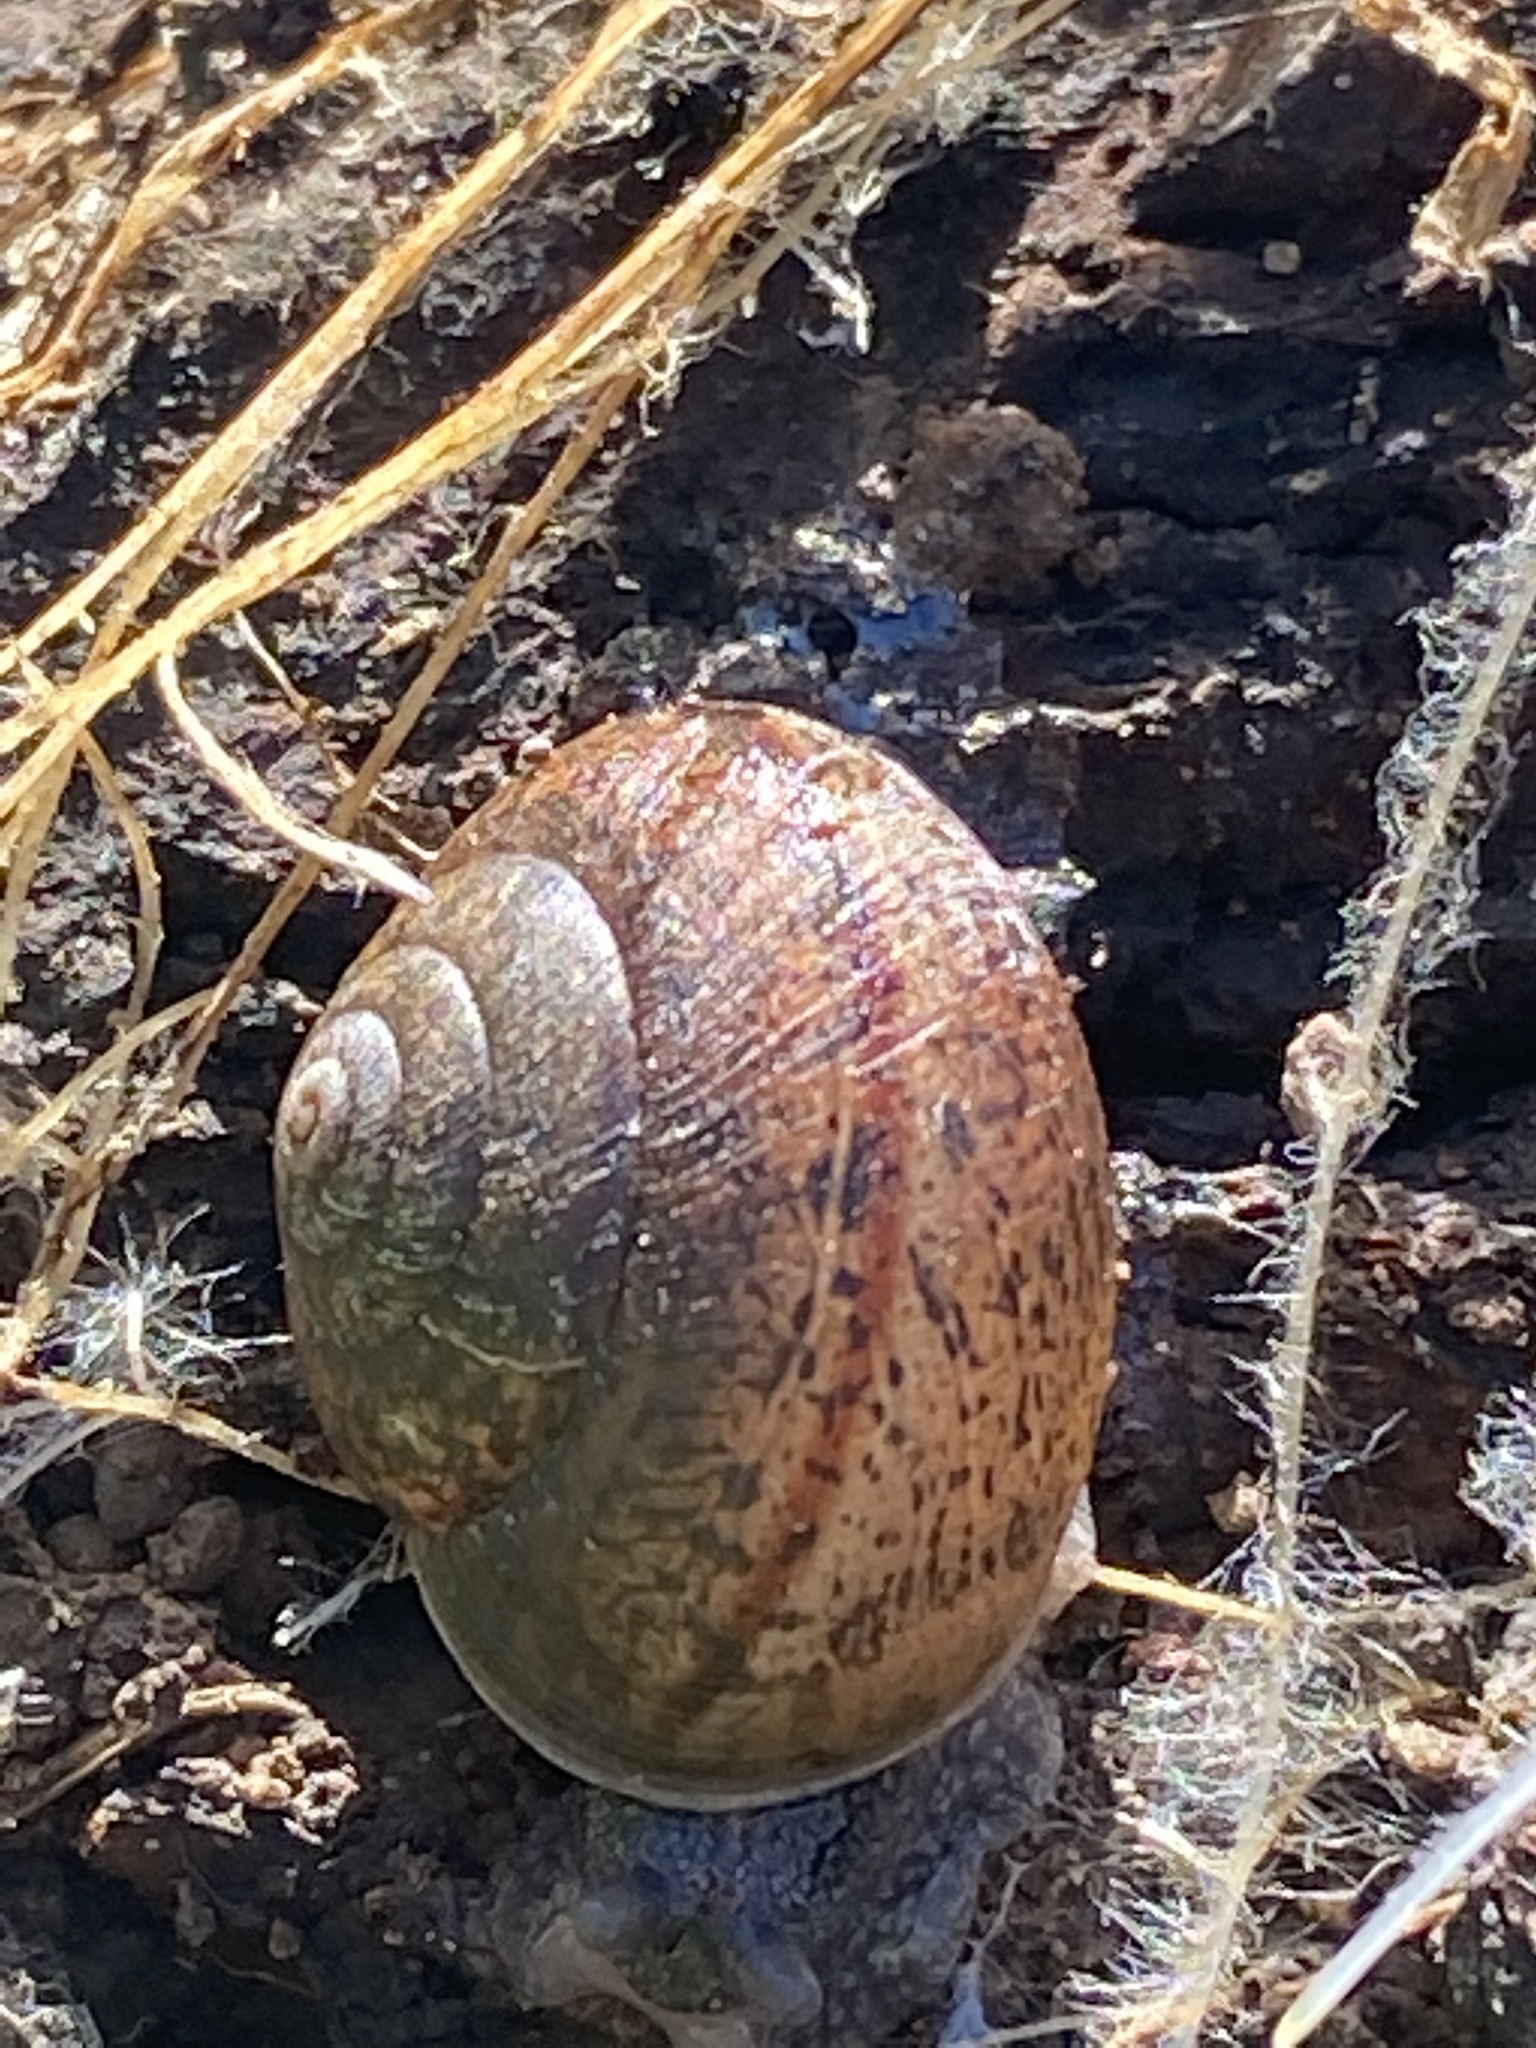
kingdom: Animalia
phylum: Mollusca
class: Gastropoda
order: Stylommatophora
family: Xanthonychidae
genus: Helminthoglypta
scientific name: Helminthoglypta nickliniana
